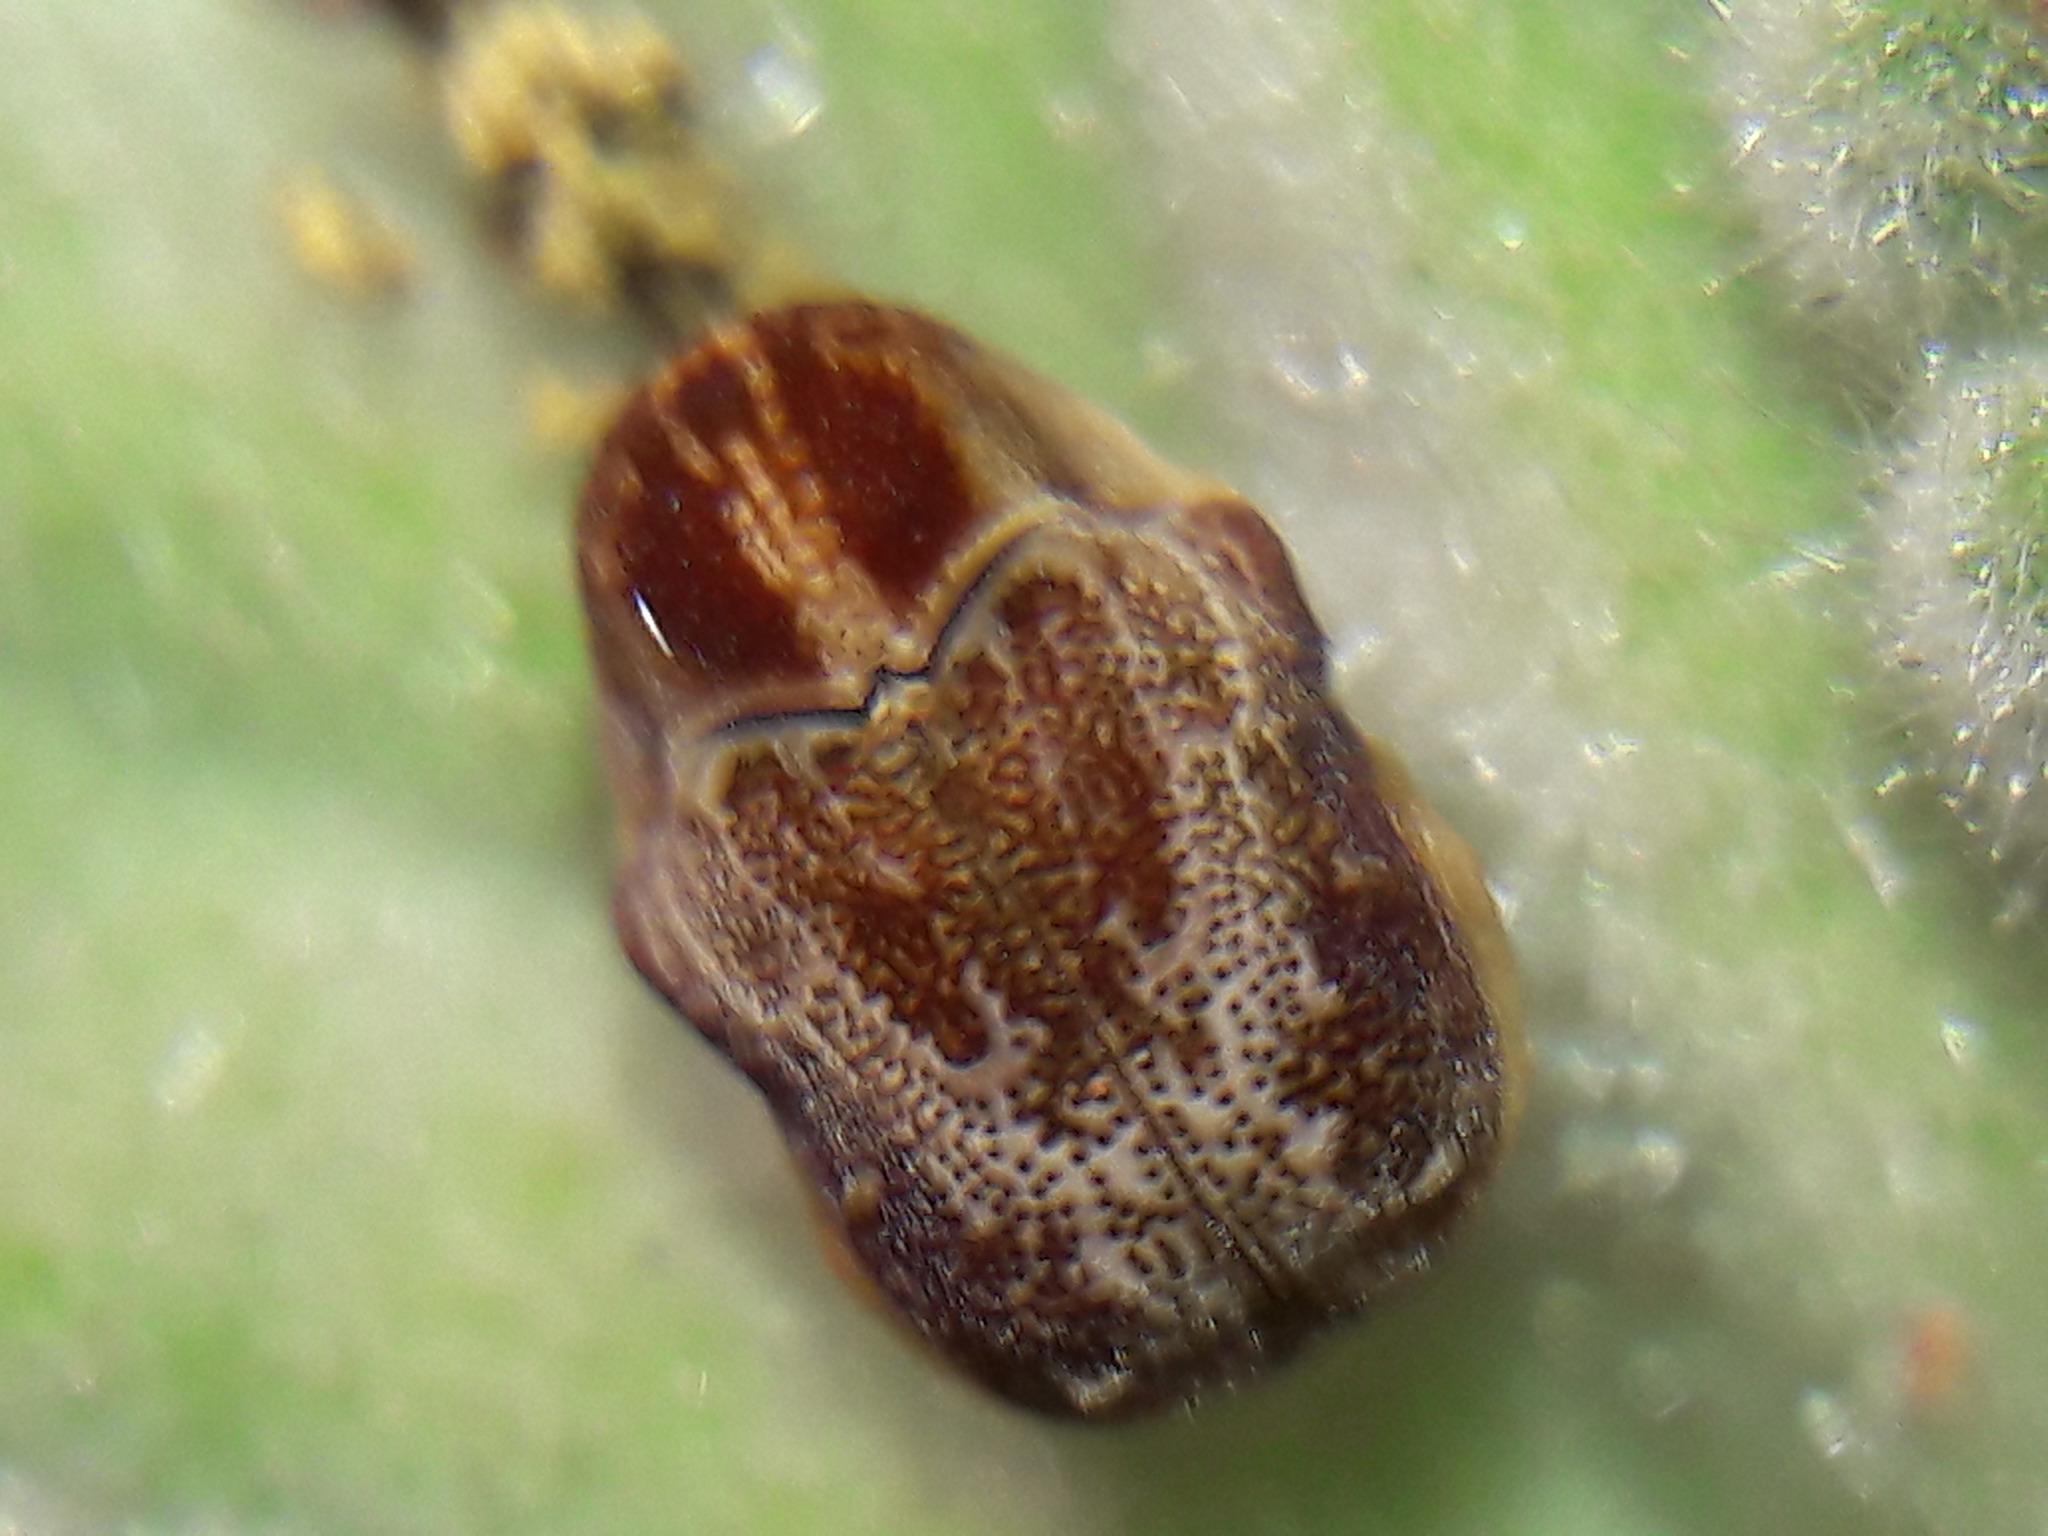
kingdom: Animalia
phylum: Arthropoda
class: Insecta
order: Coleoptera
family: Chrysomelidae
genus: Chlamisus
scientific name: Chlamisus
